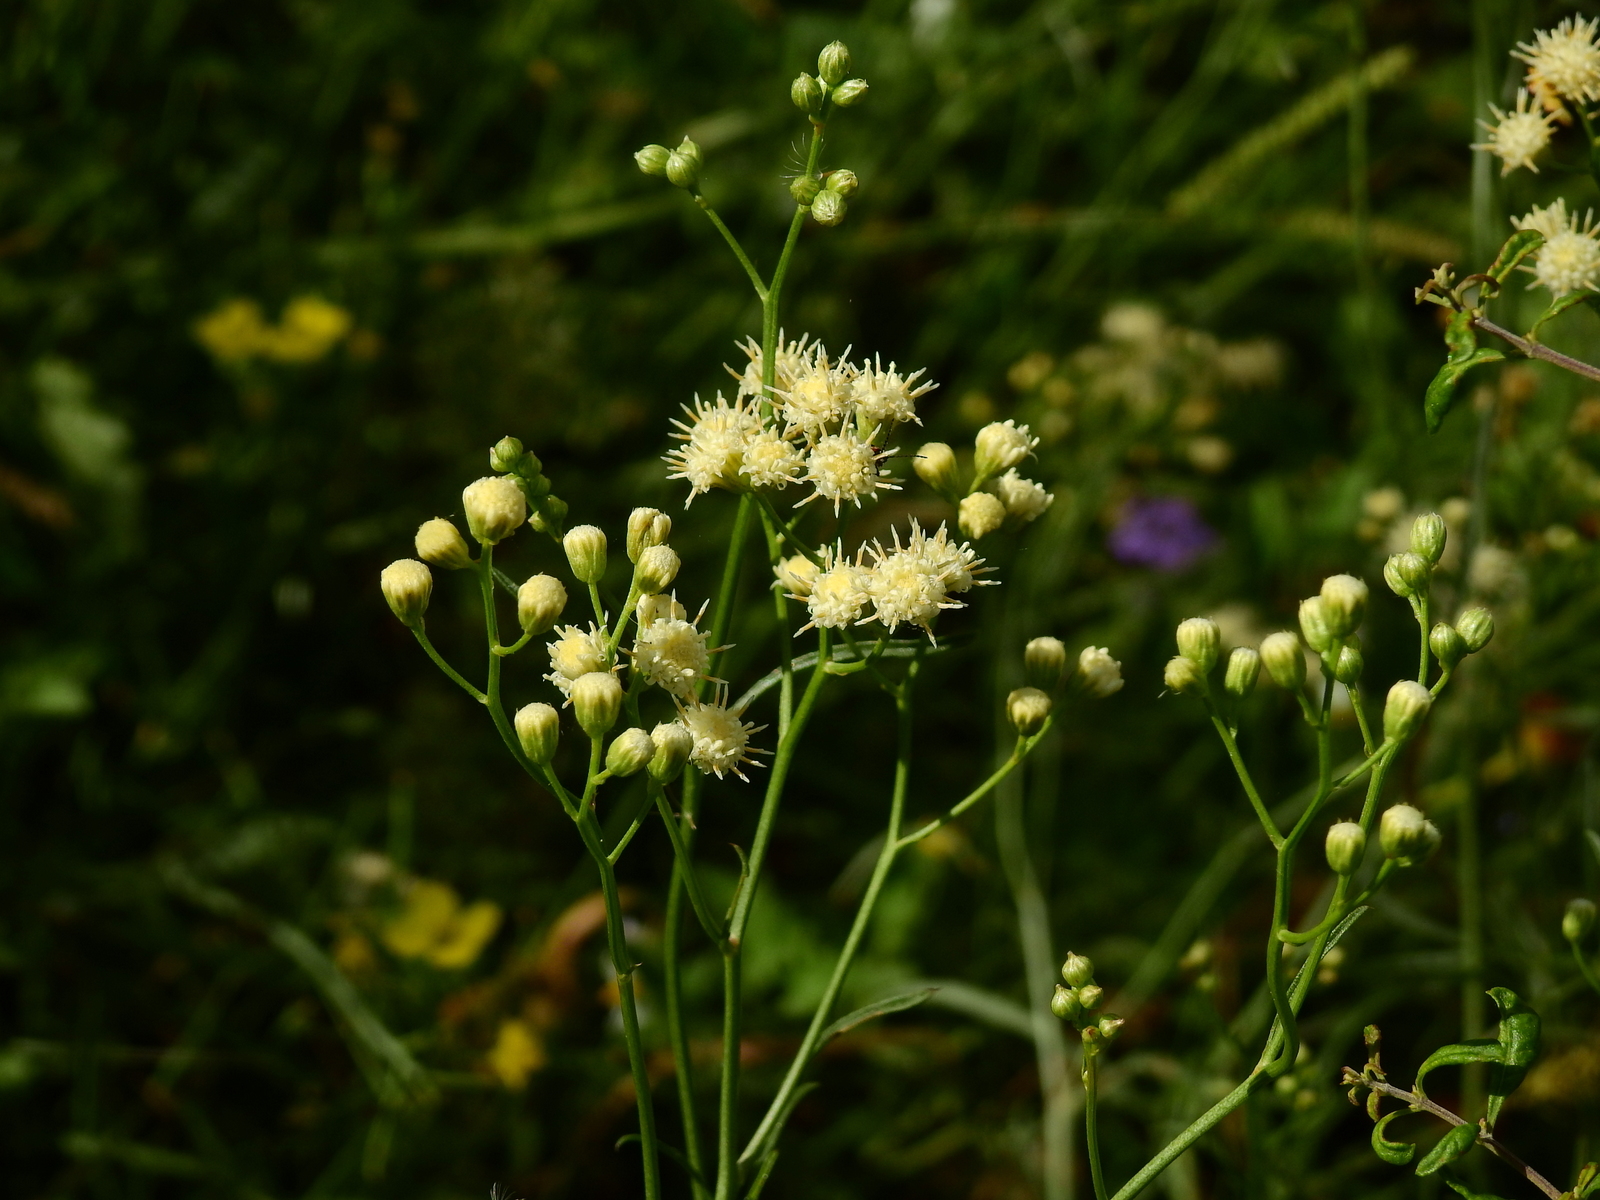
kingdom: Plantae
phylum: Tracheophyta
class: Magnoliopsida
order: Asterales
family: Asteraceae
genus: Baccharis
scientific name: Baccharis salicifolia
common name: Sticky baccharis
